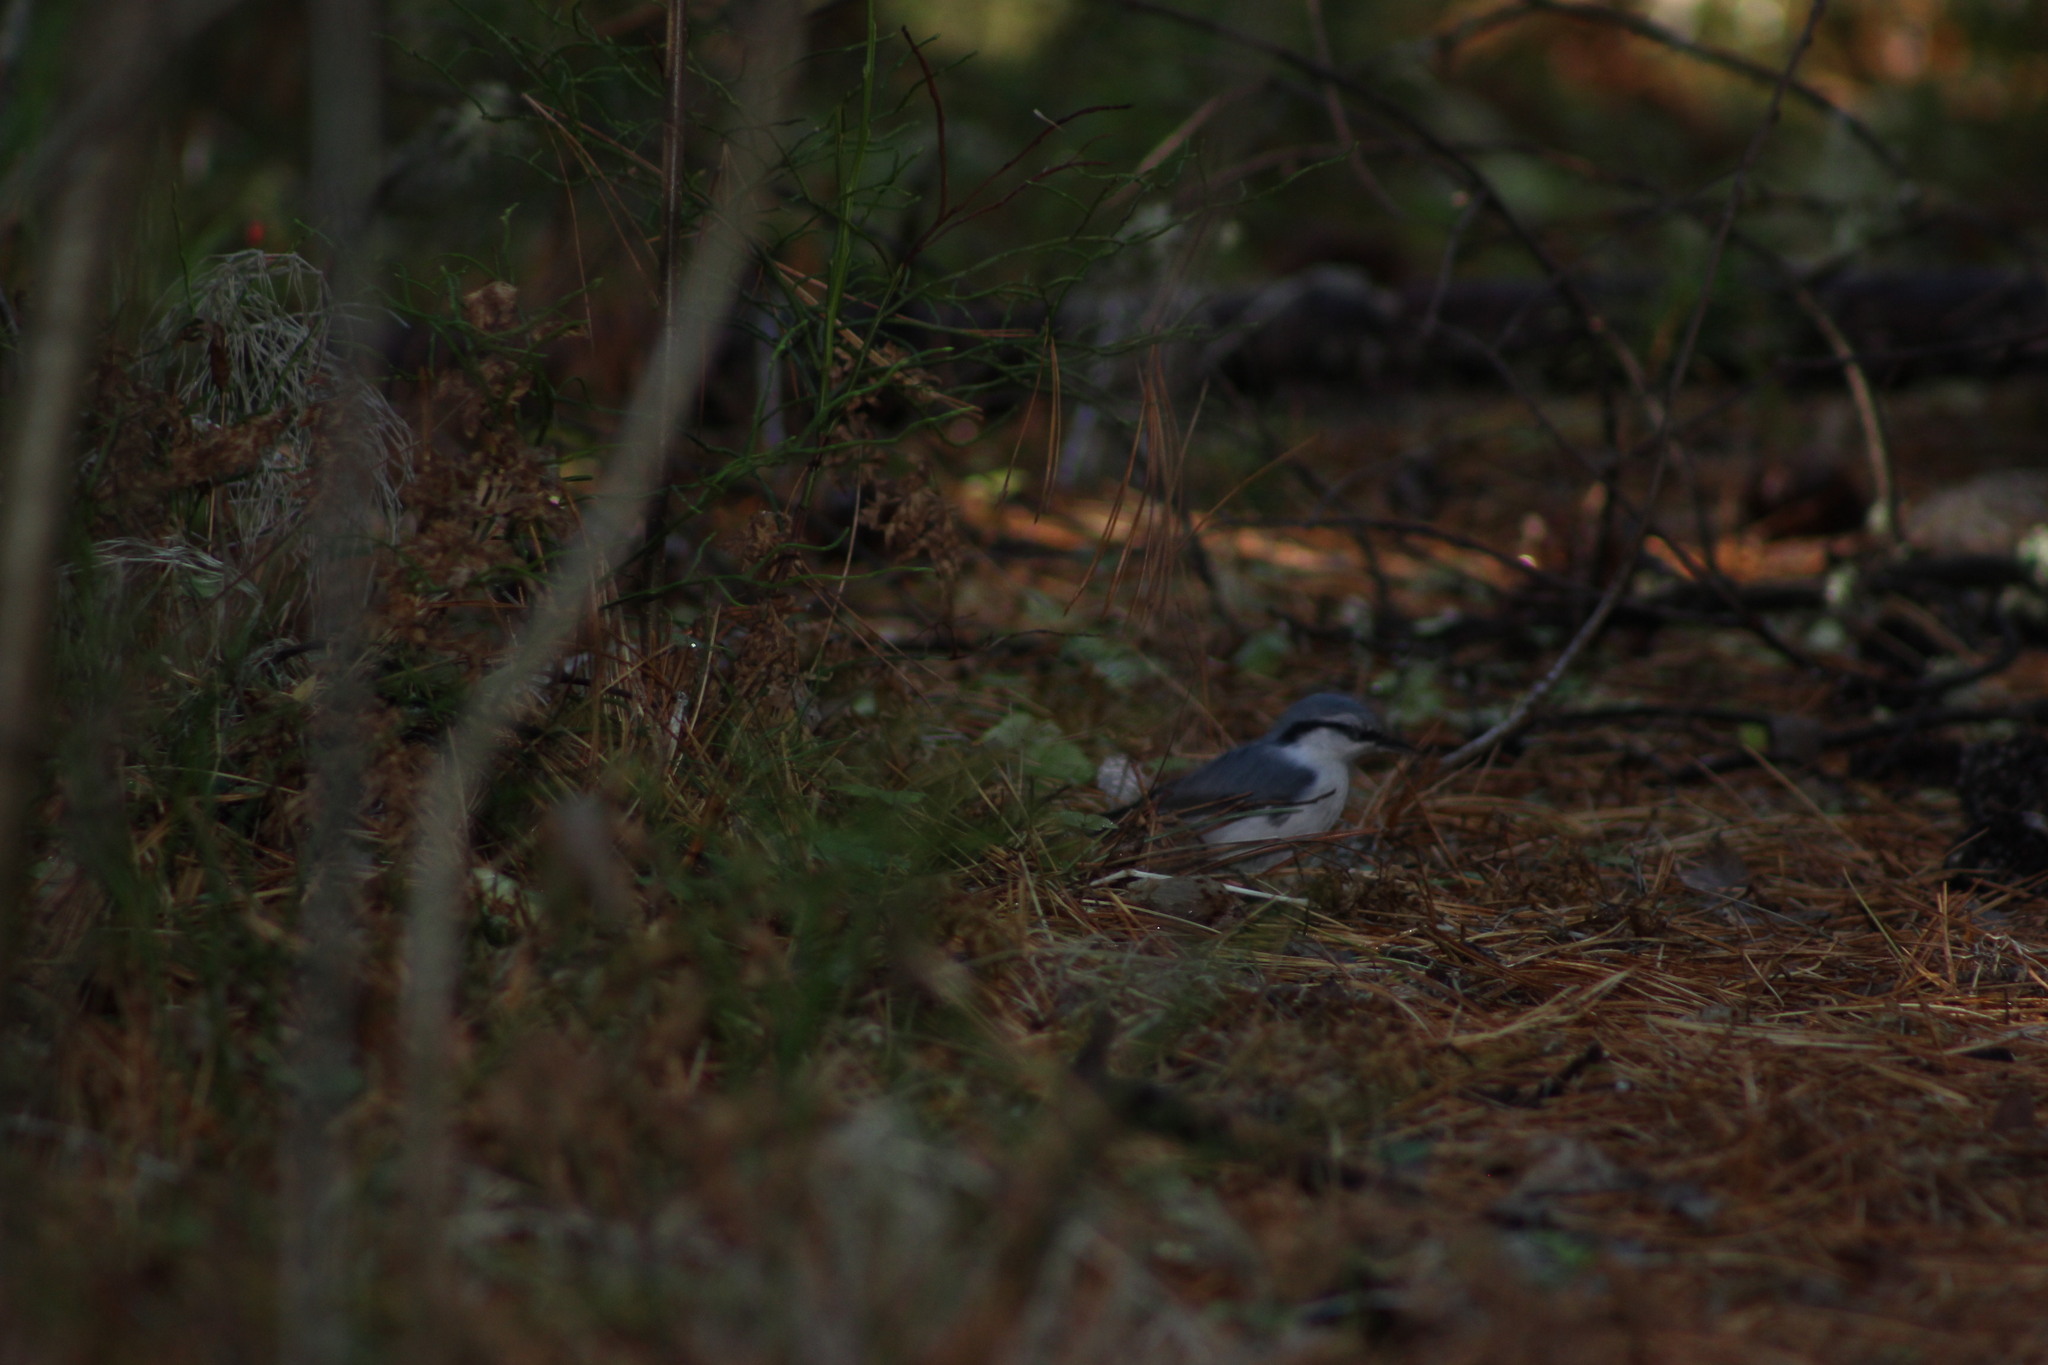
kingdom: Animalia
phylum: Chordata
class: Aves
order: Passeriformes
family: Sittidae
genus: Sitta
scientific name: Sitta europaea
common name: Eurasian nuthatch
